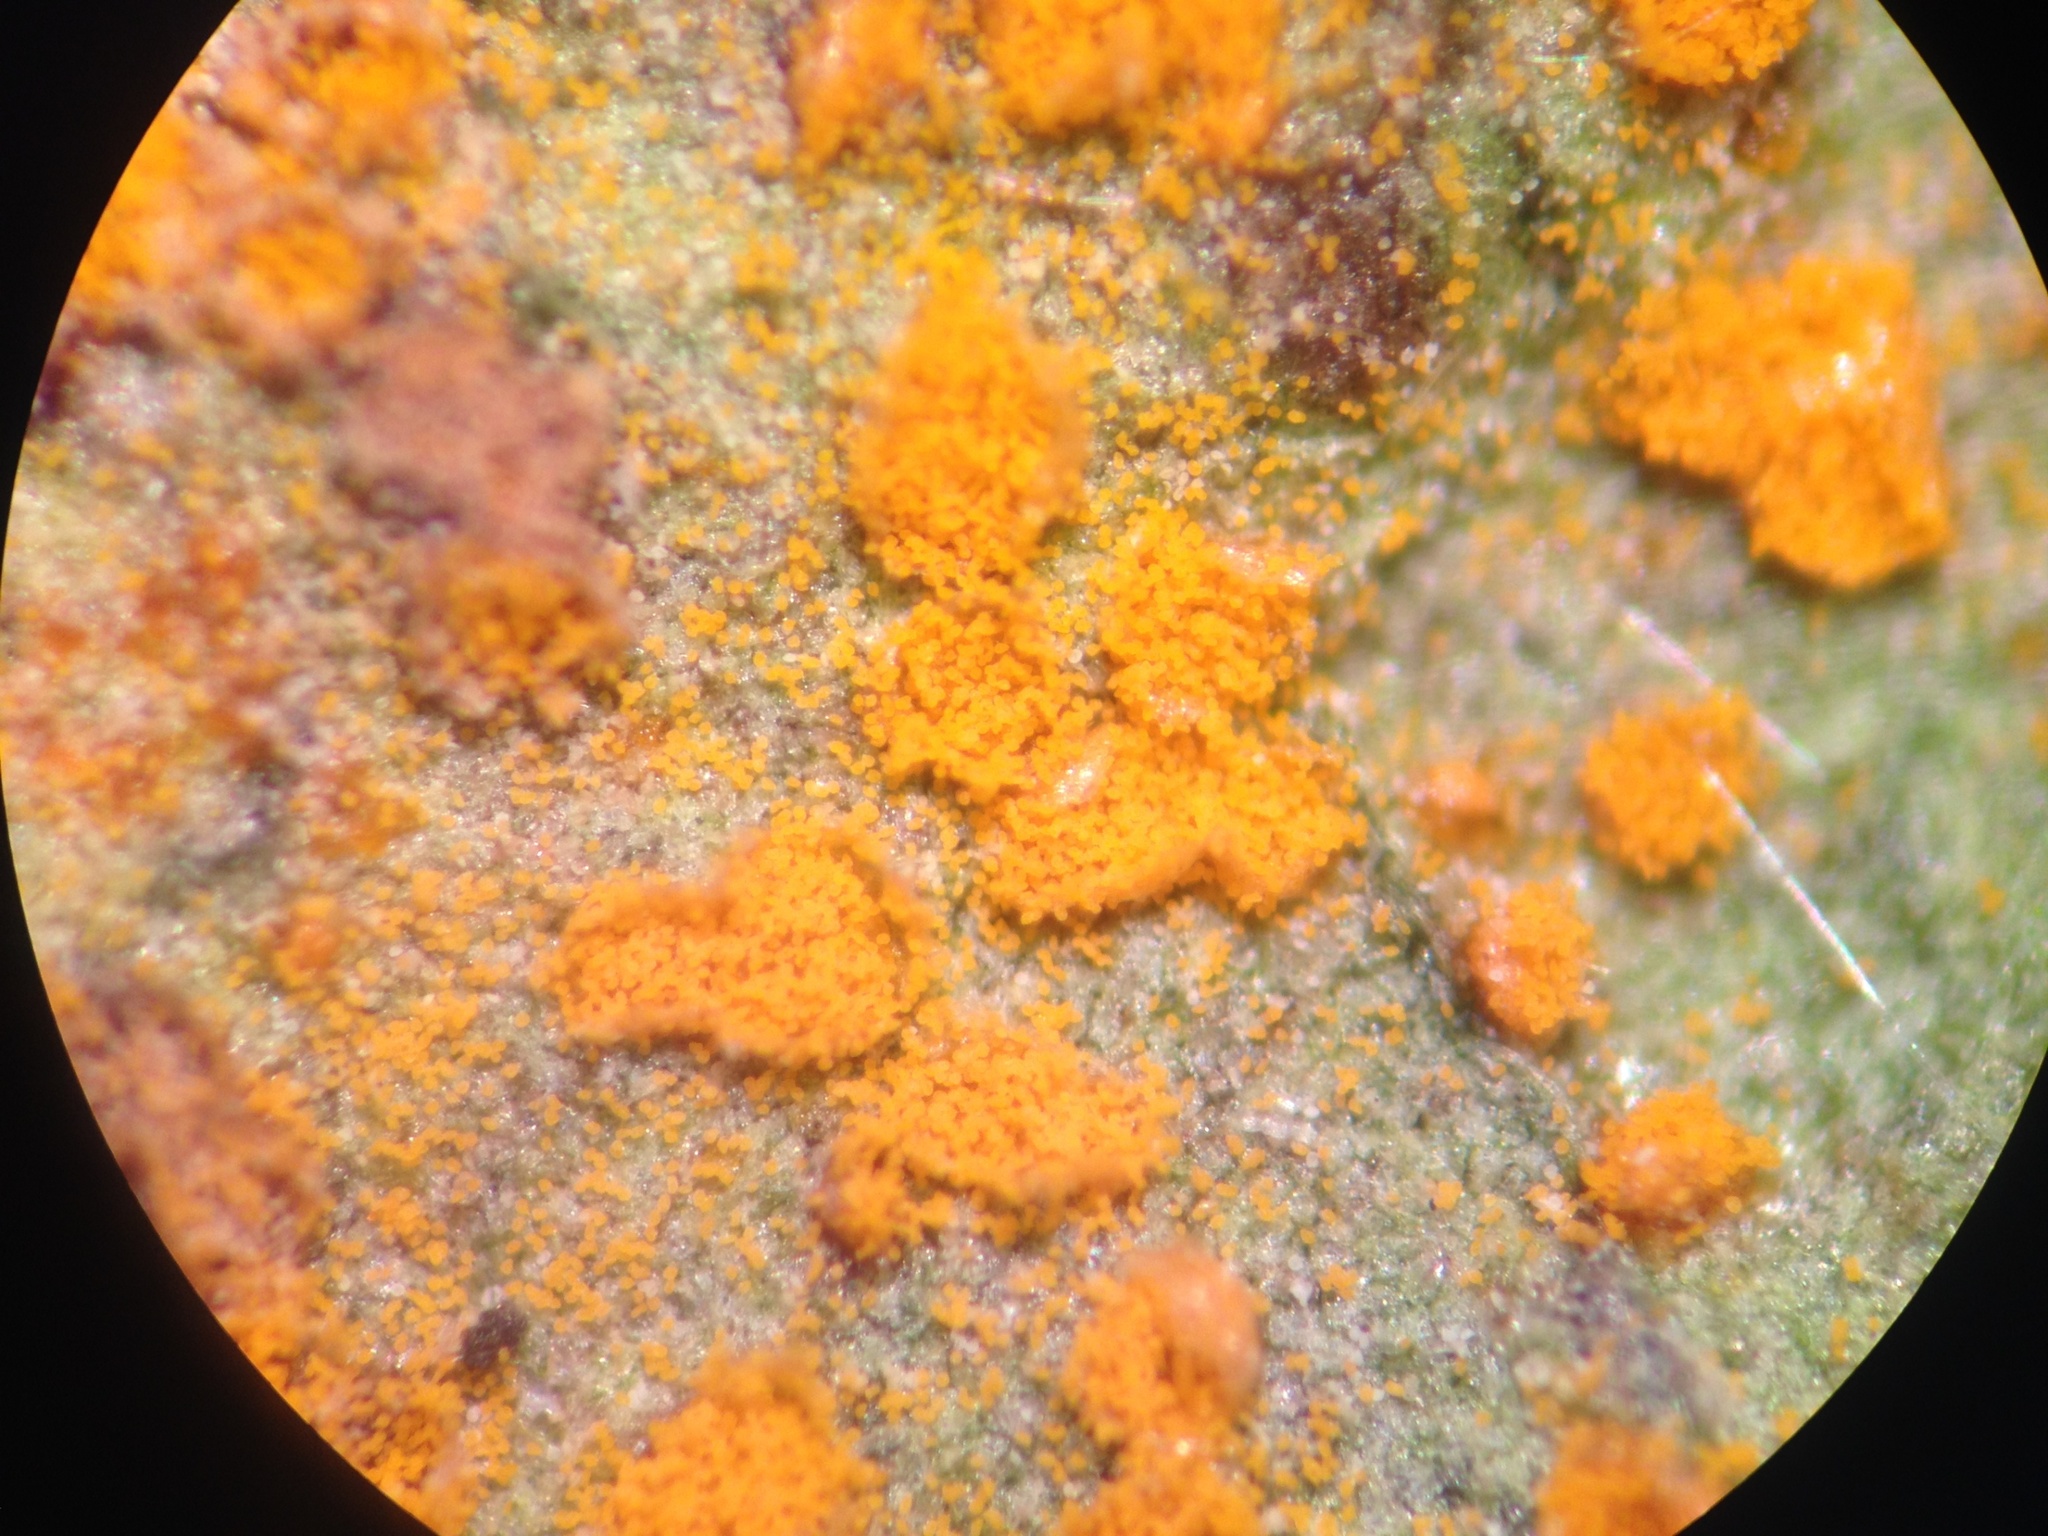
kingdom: Fungi
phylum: Basidiomycota
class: Pucciniomycetes
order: Pucciniales
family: Coleosporiaceae
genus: Coleosporium
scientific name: Coleosporium tussilaginis
